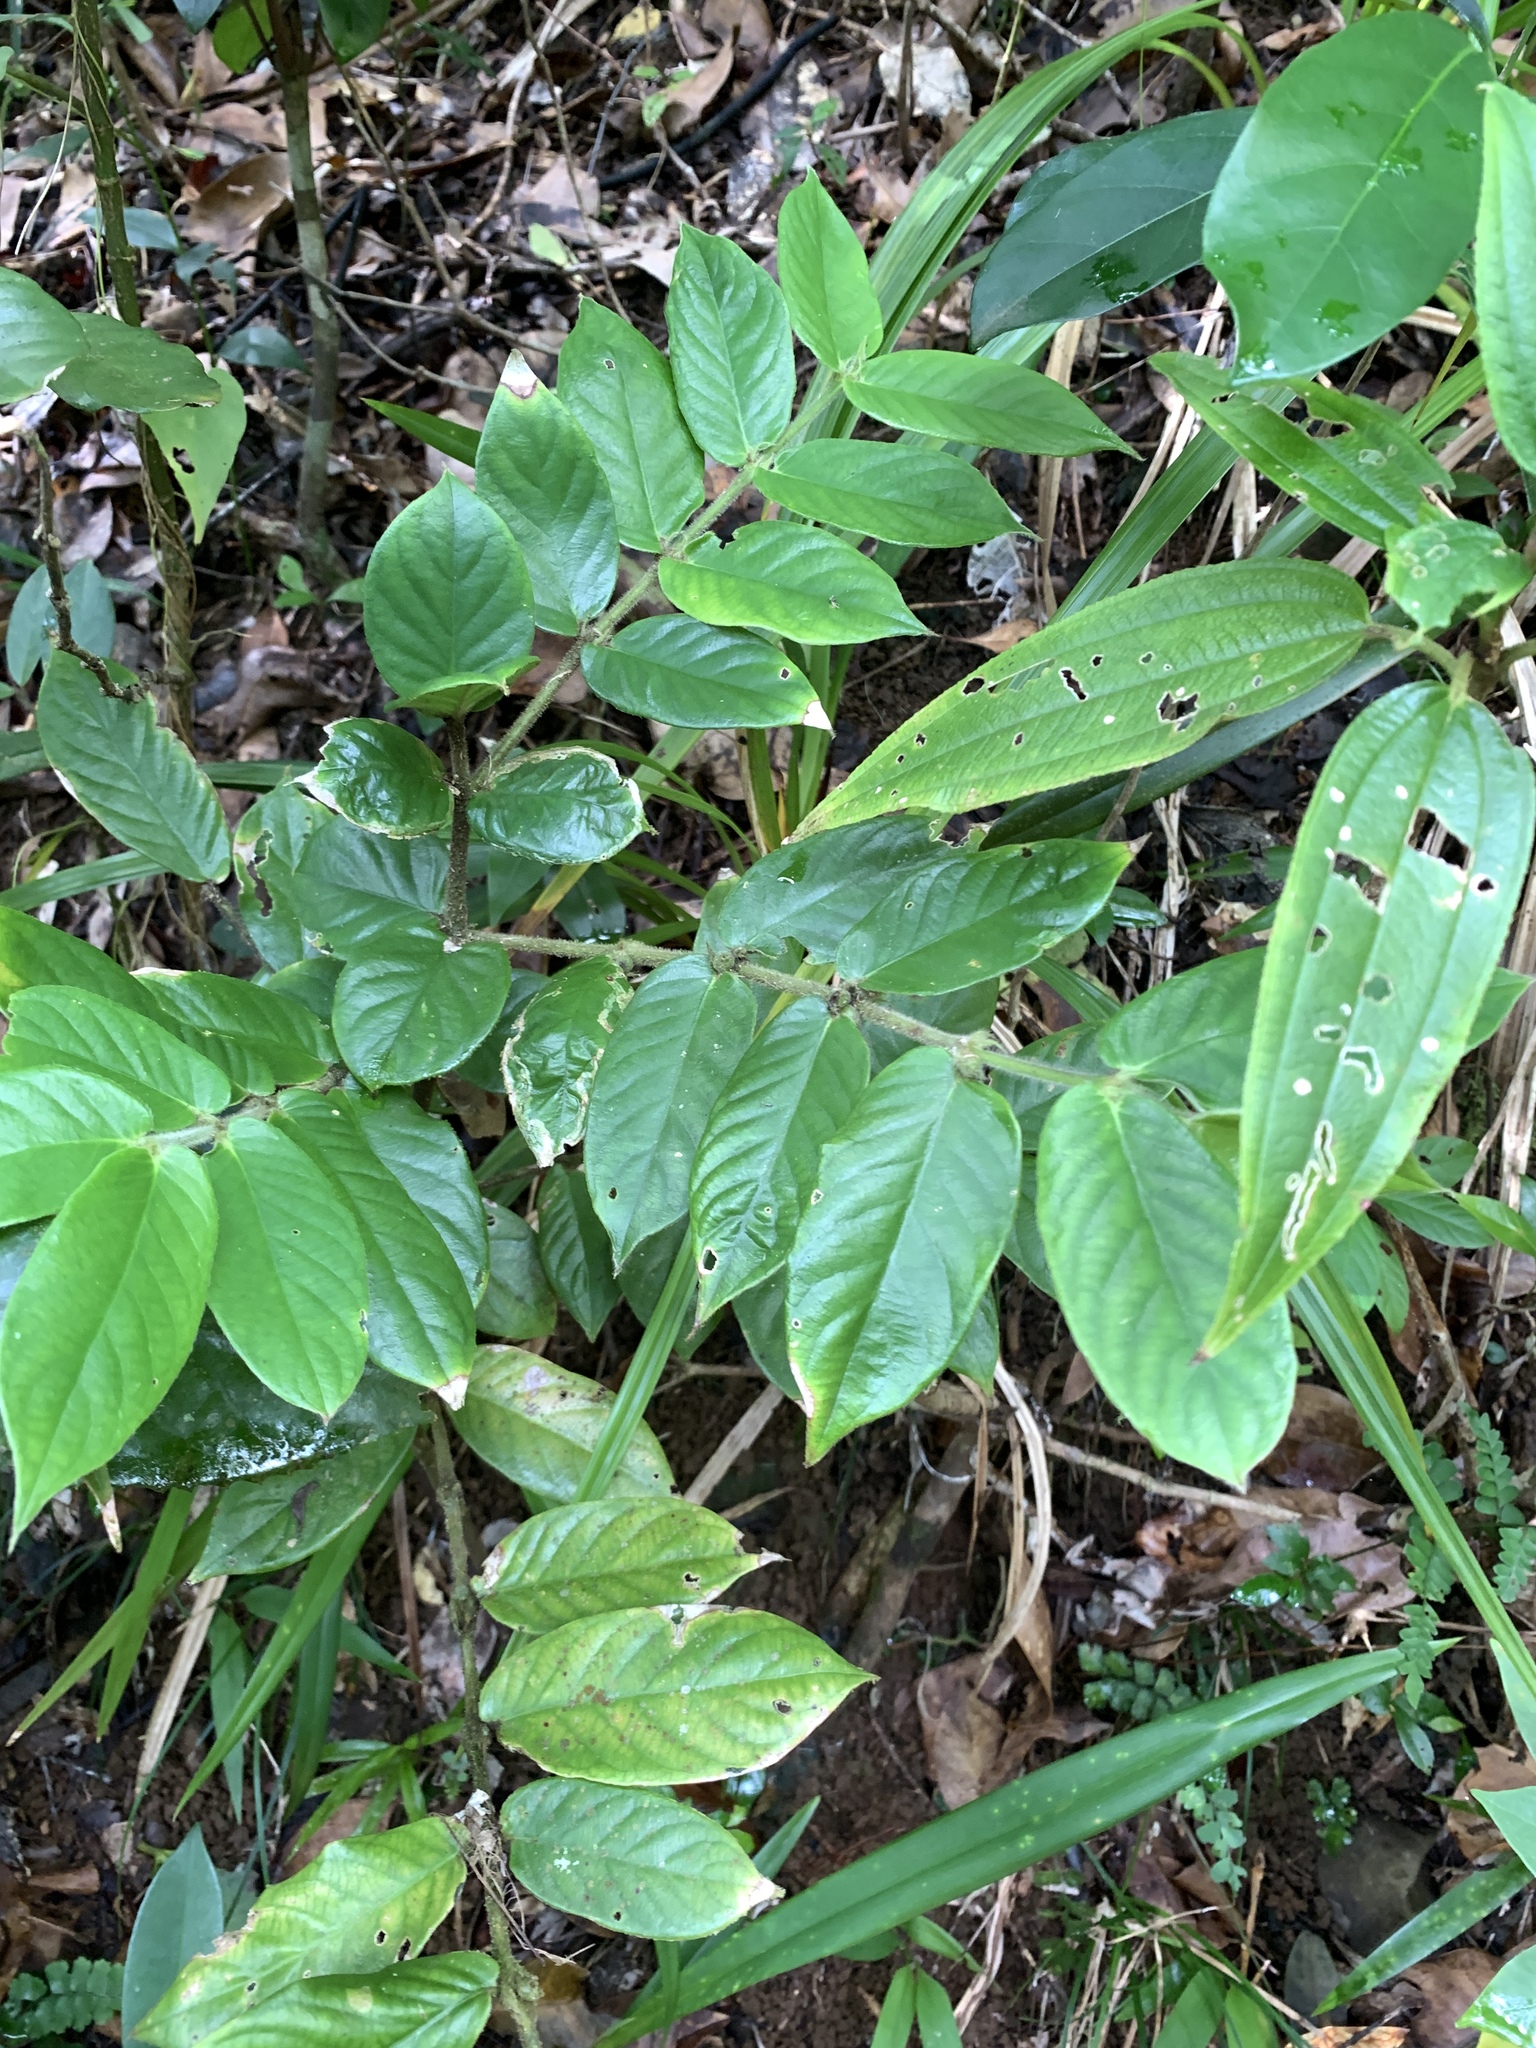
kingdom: Plantae
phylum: Tracheophyta
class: Magnoliopsida
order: Gentianales
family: Rubiaceae
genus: Lasianthus
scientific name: Lasianthus attenuatus
